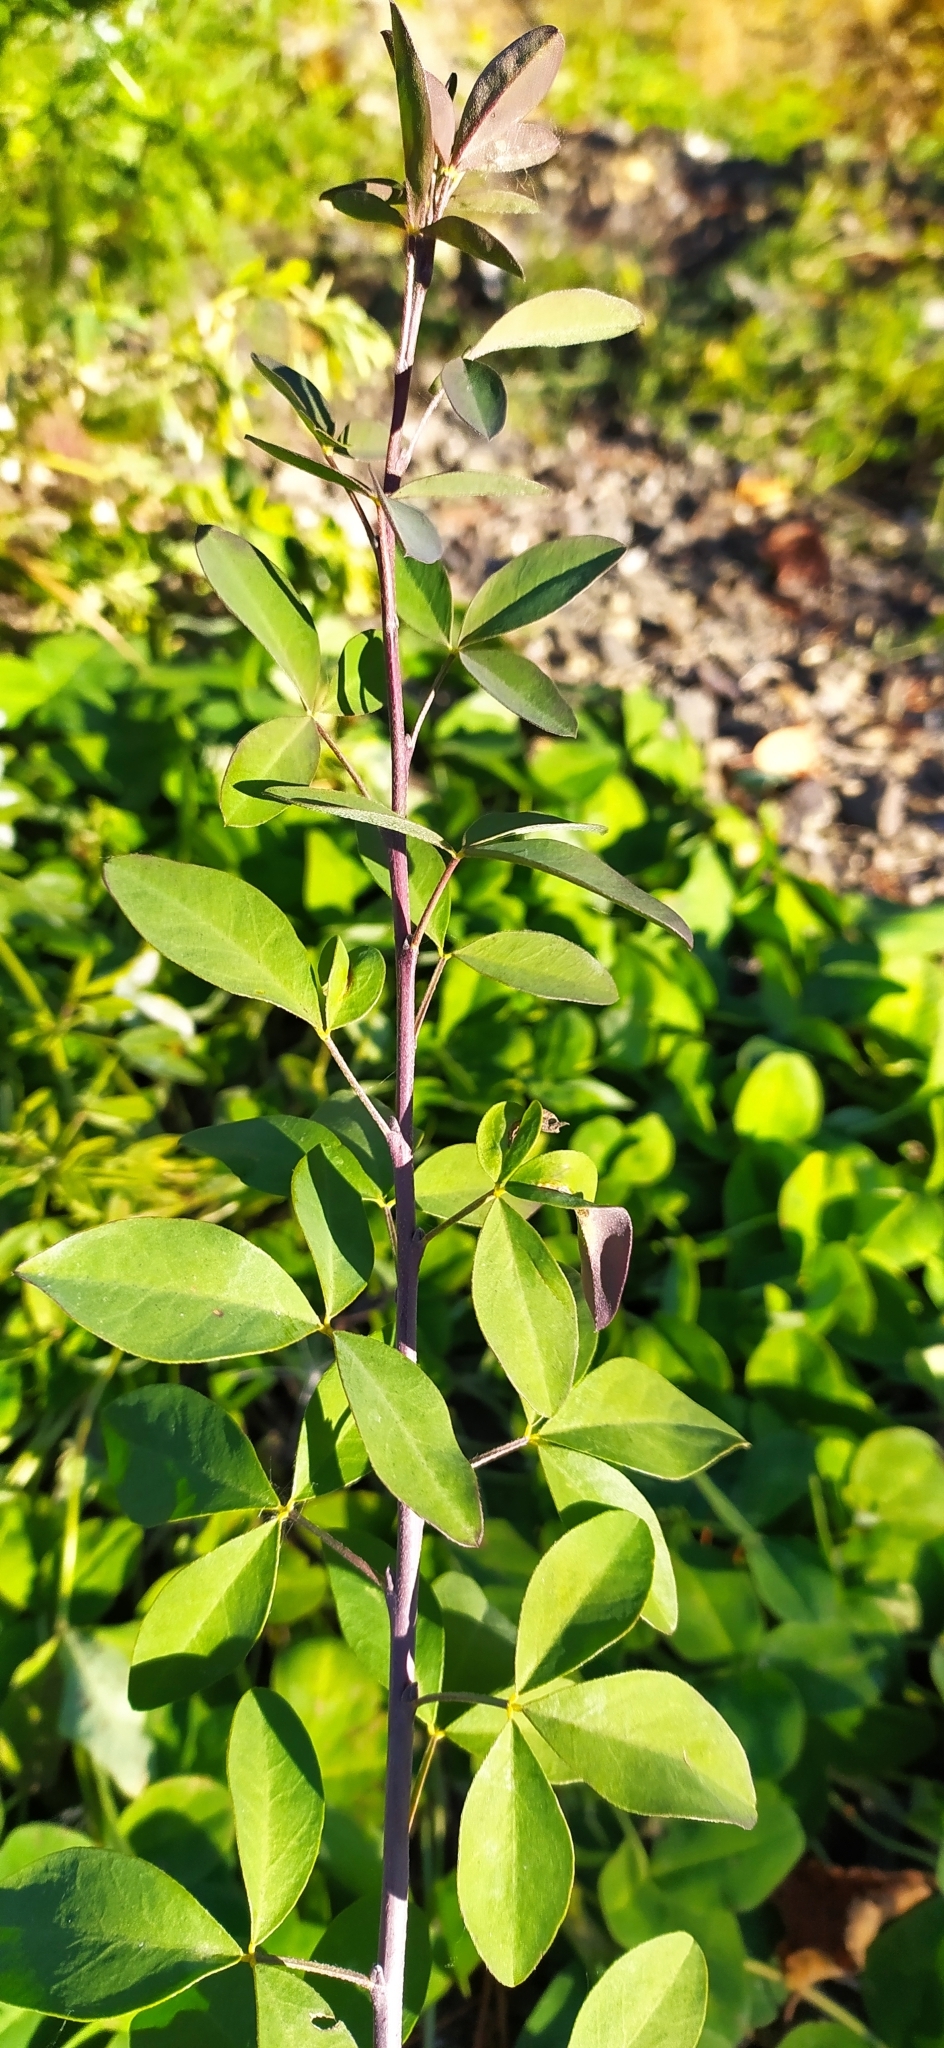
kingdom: Plantae
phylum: Tracheophyta
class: Magnoliopsida
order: Fabales
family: Fabaceae
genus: Chamaecytisus
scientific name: Chamaecytisus ruthenicus
